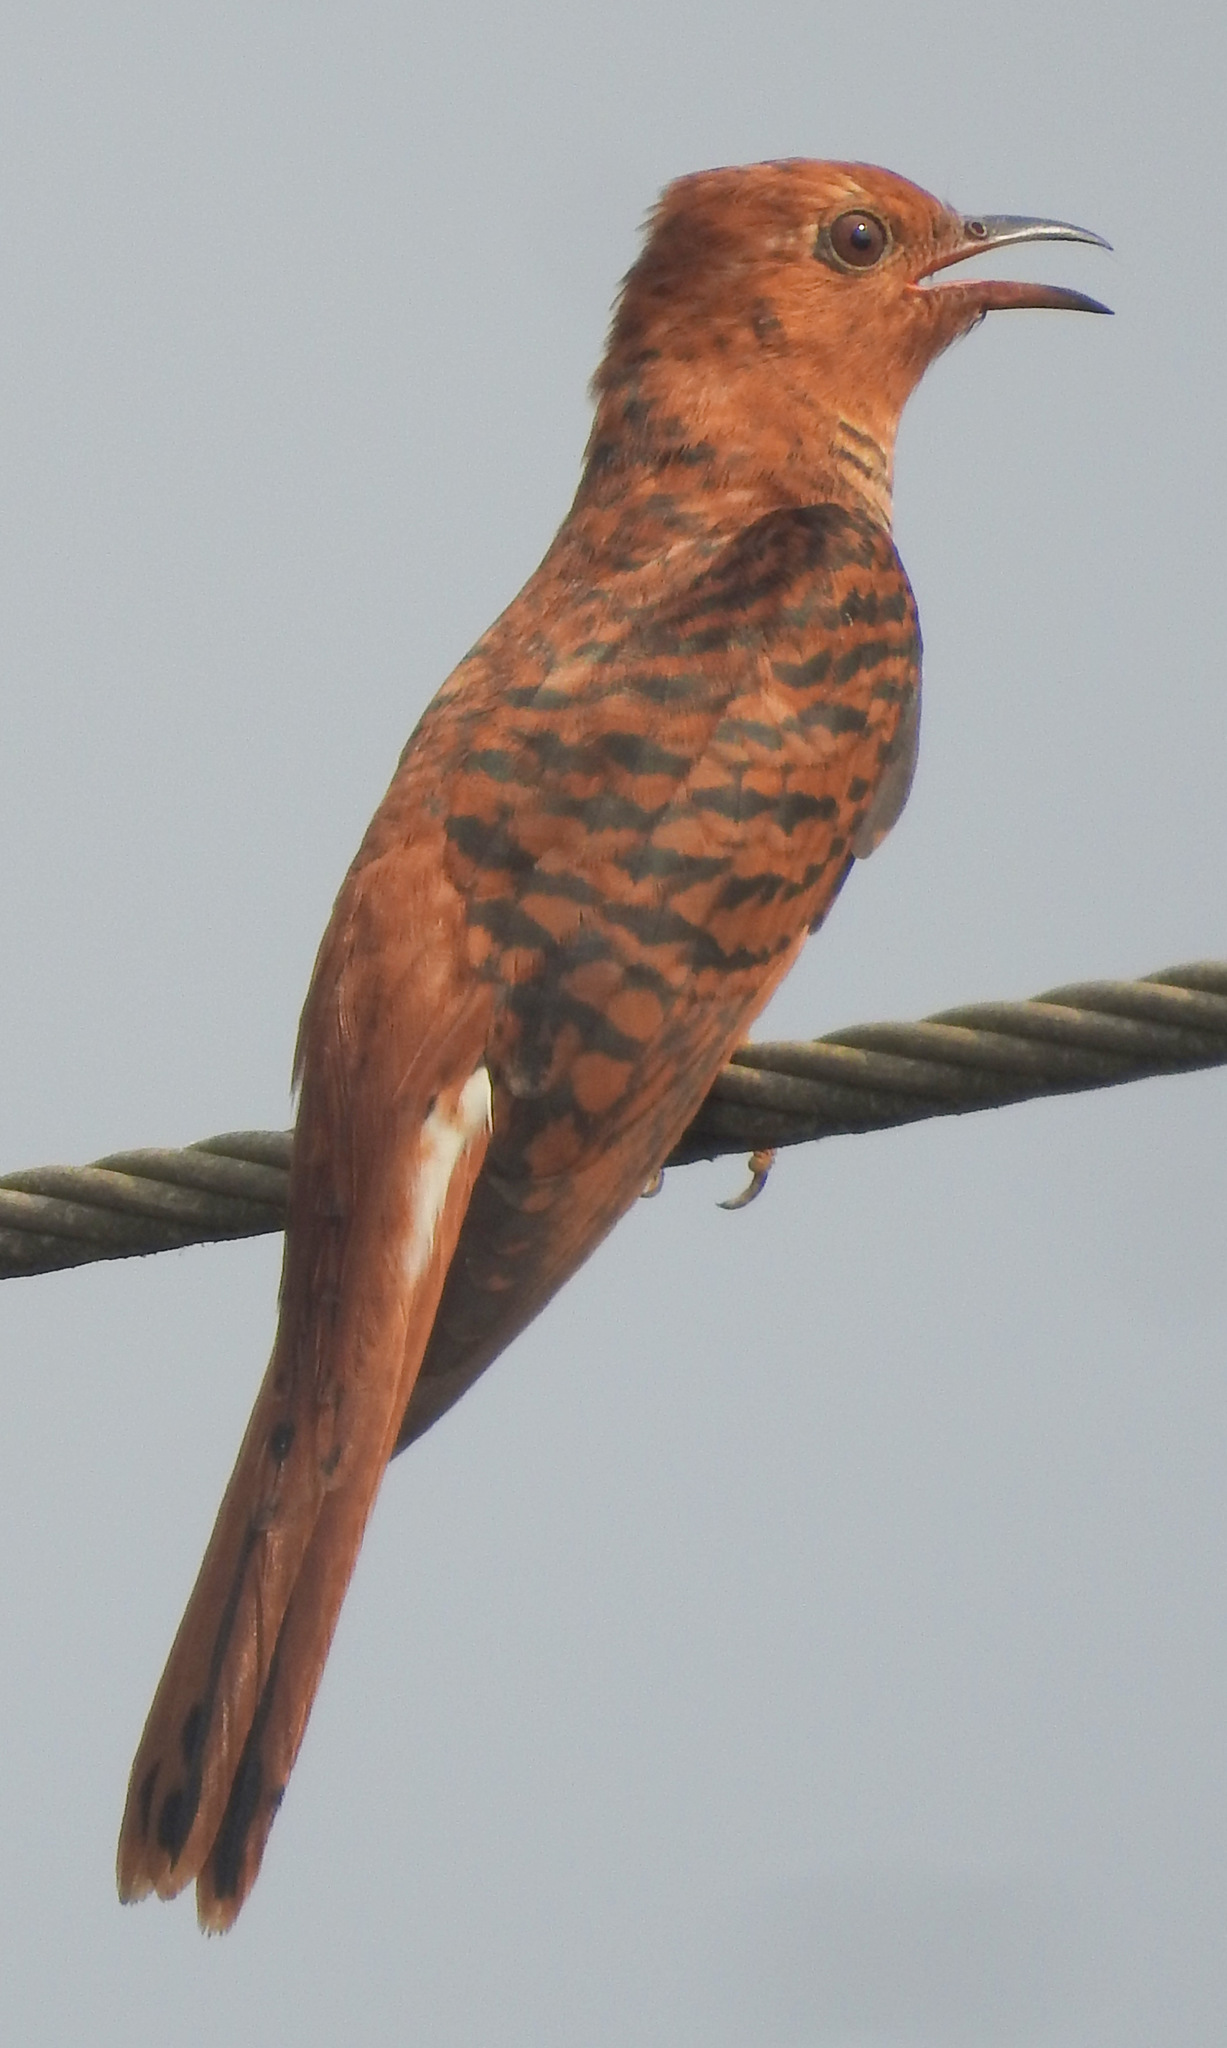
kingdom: Animalia
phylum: Chordata
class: Aves
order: Cuculiformes
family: Cuculidae
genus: Cacomantis
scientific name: Cacomantis passerinus
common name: Grey-bellied cuckoo
